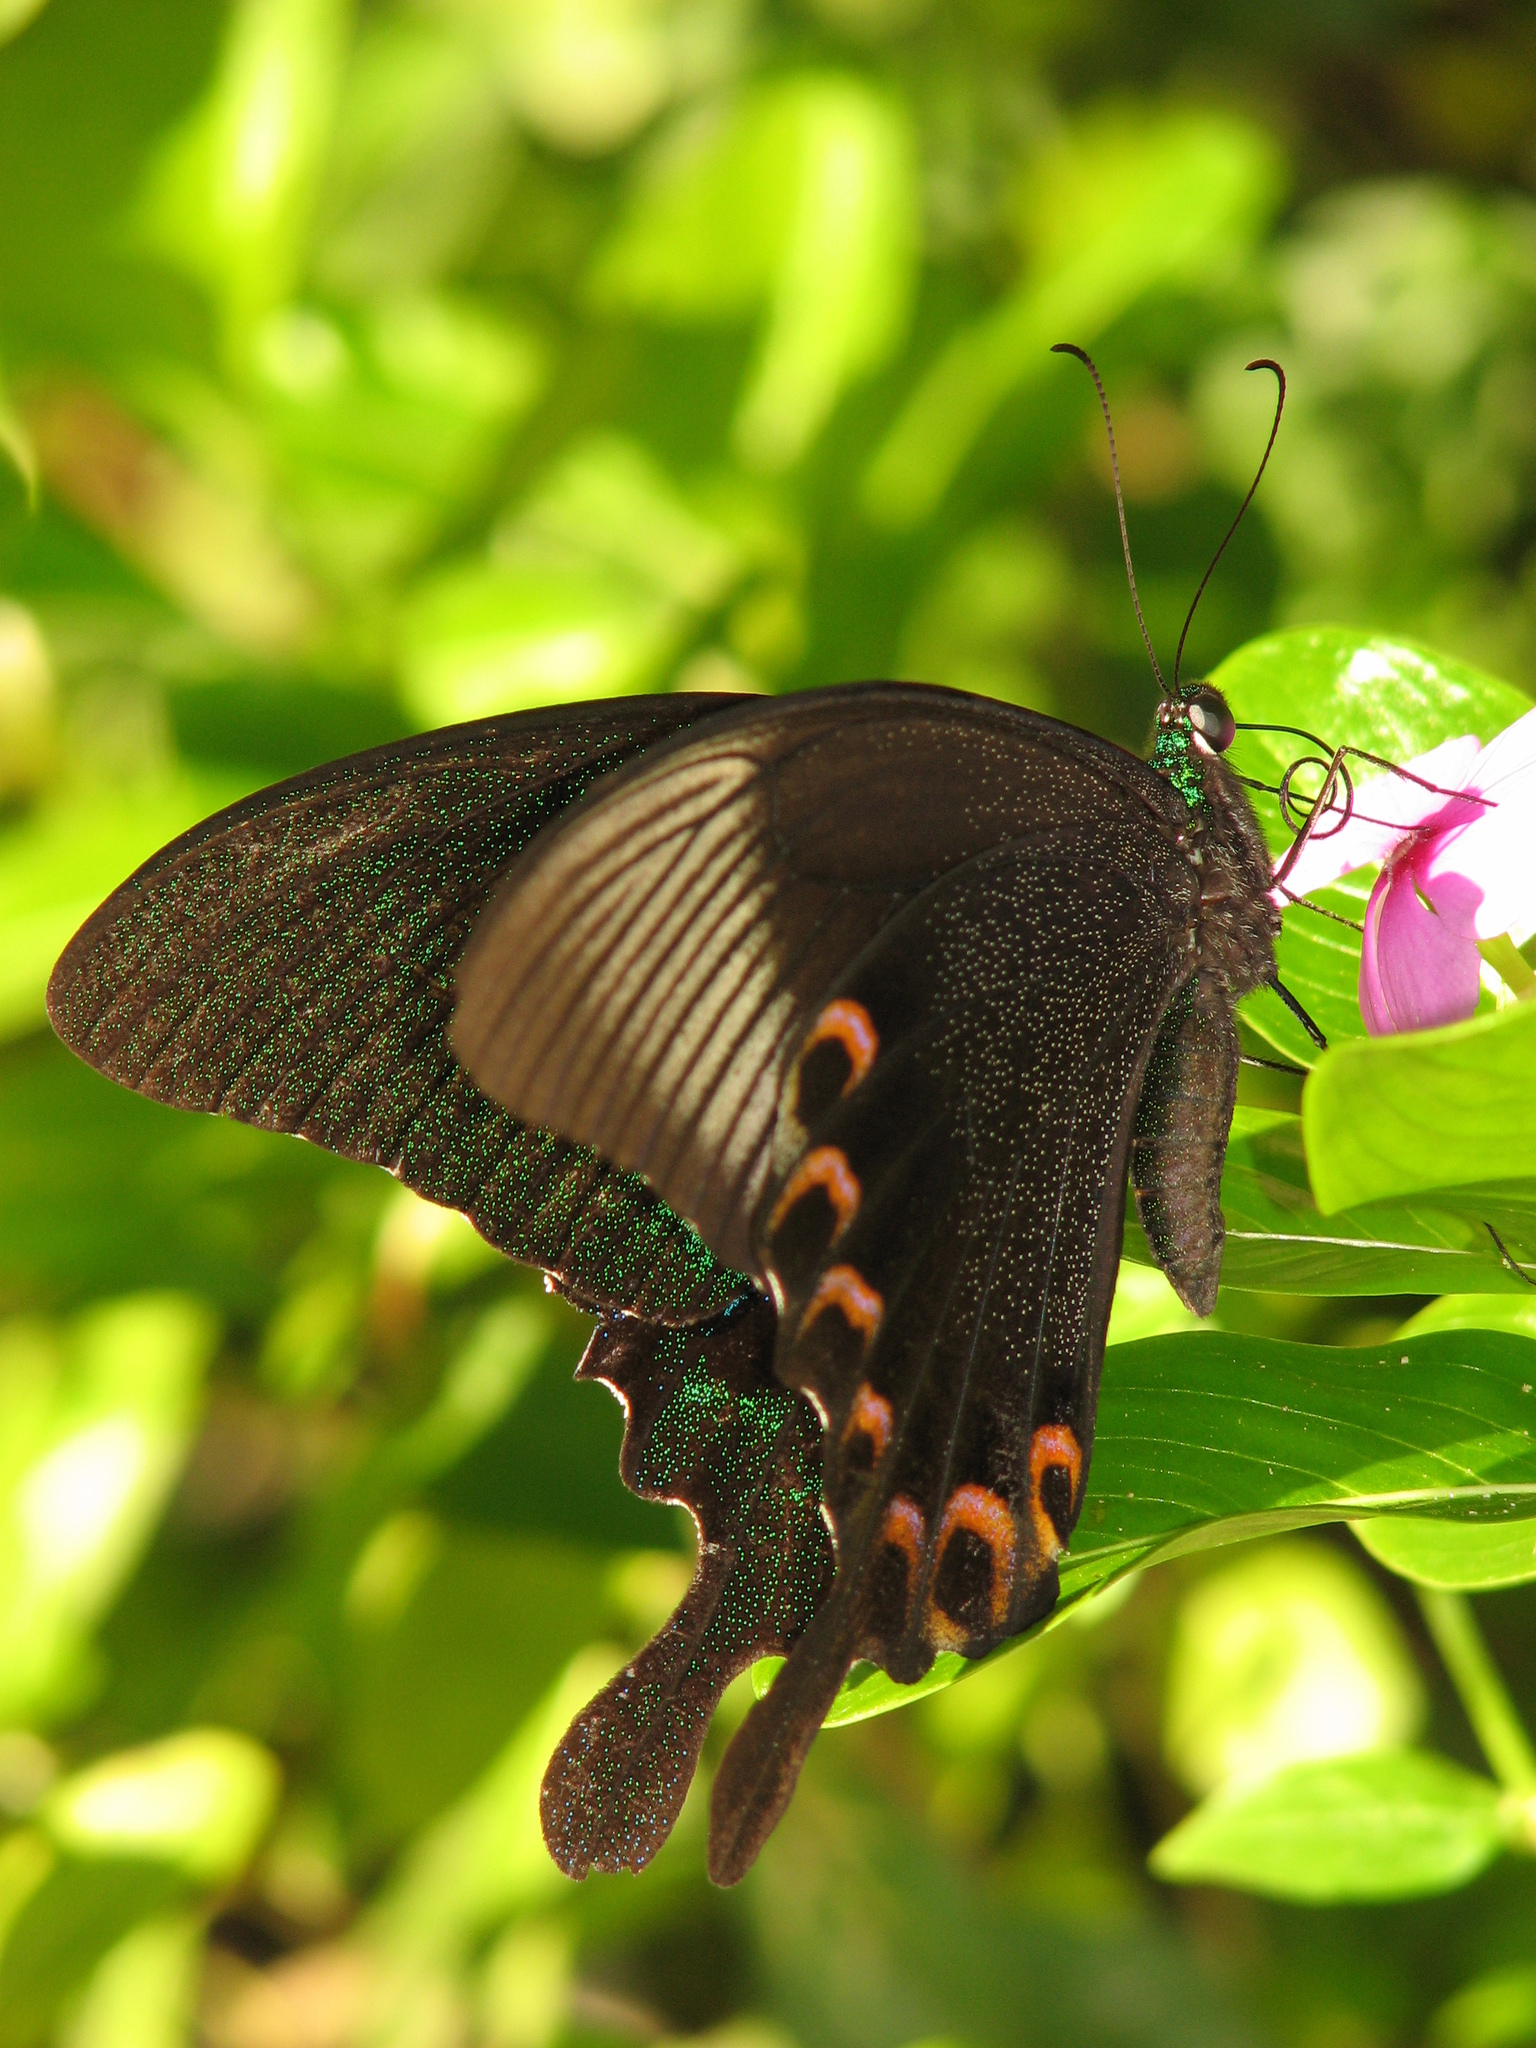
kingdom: Animalia
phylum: Arthropoda
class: Insecta
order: Lepidoptera
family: Papilionidae
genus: Papilio
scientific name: Papilio paris
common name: Paris peacock
